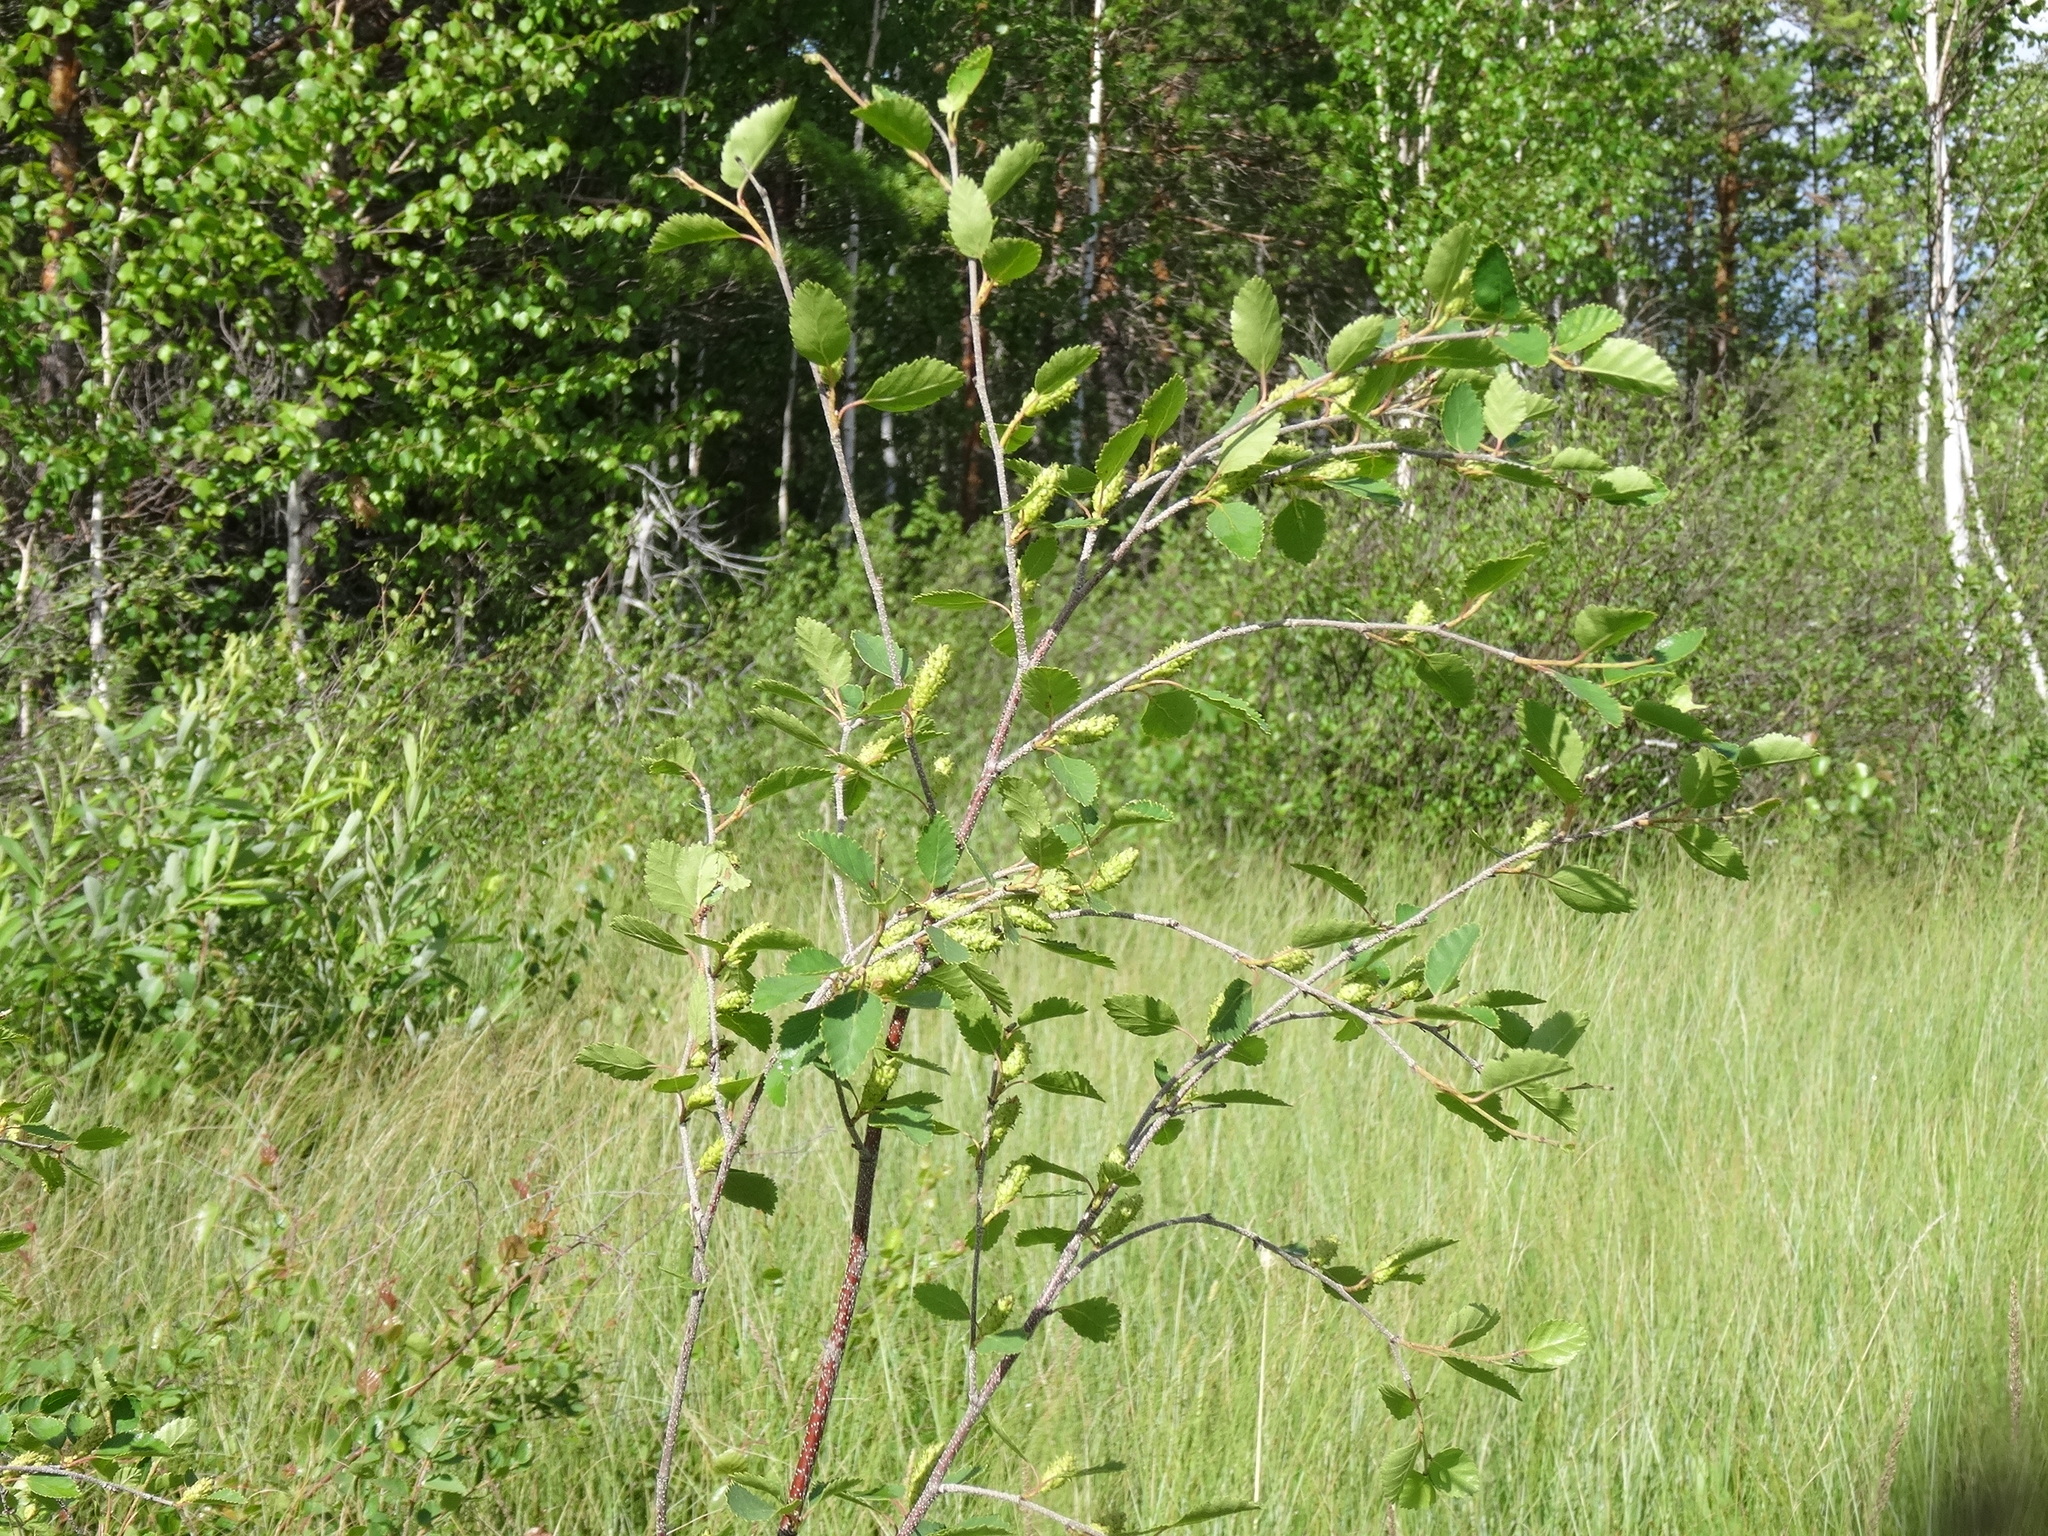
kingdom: Plantae
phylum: Tracheophyta
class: Magnoliopsida
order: Fagales
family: Betulaceae
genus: Betula
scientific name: Betula humilis
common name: Shrubby birch
